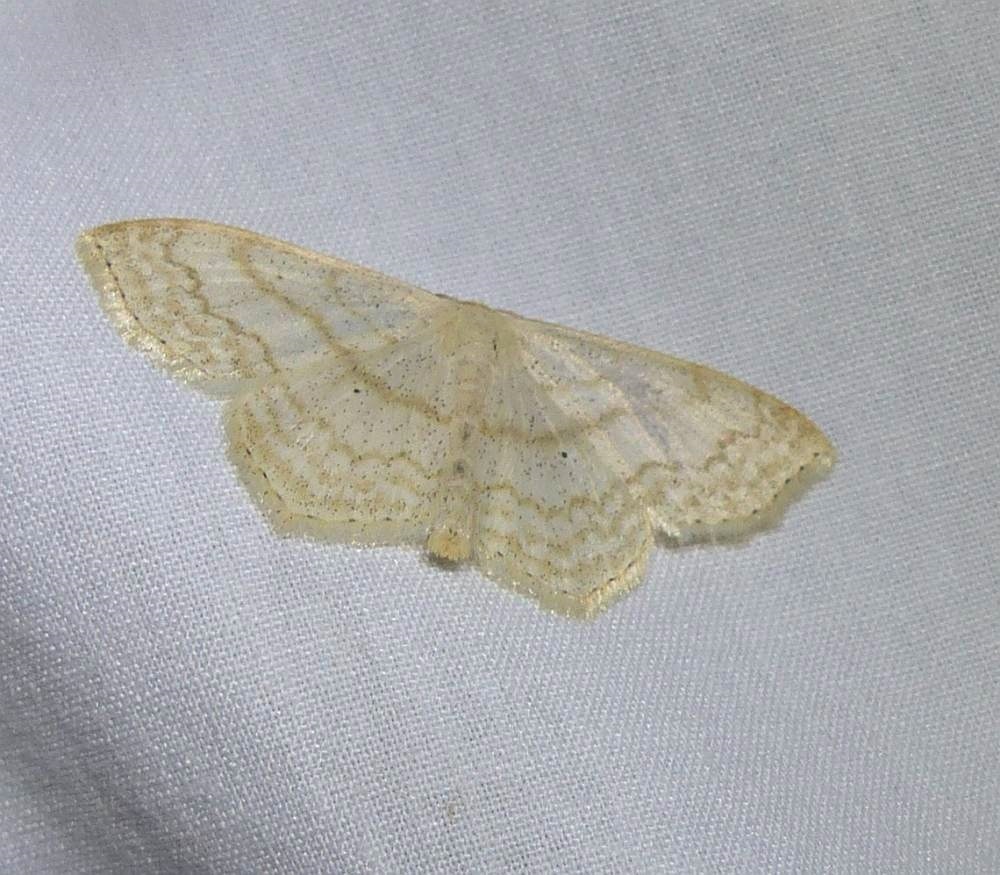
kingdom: Animalia
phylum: Arthropoda
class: Insecta
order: Lepidoptera
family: Geometridae
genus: Scopula
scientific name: Scopula limboundata
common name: Large lace border
